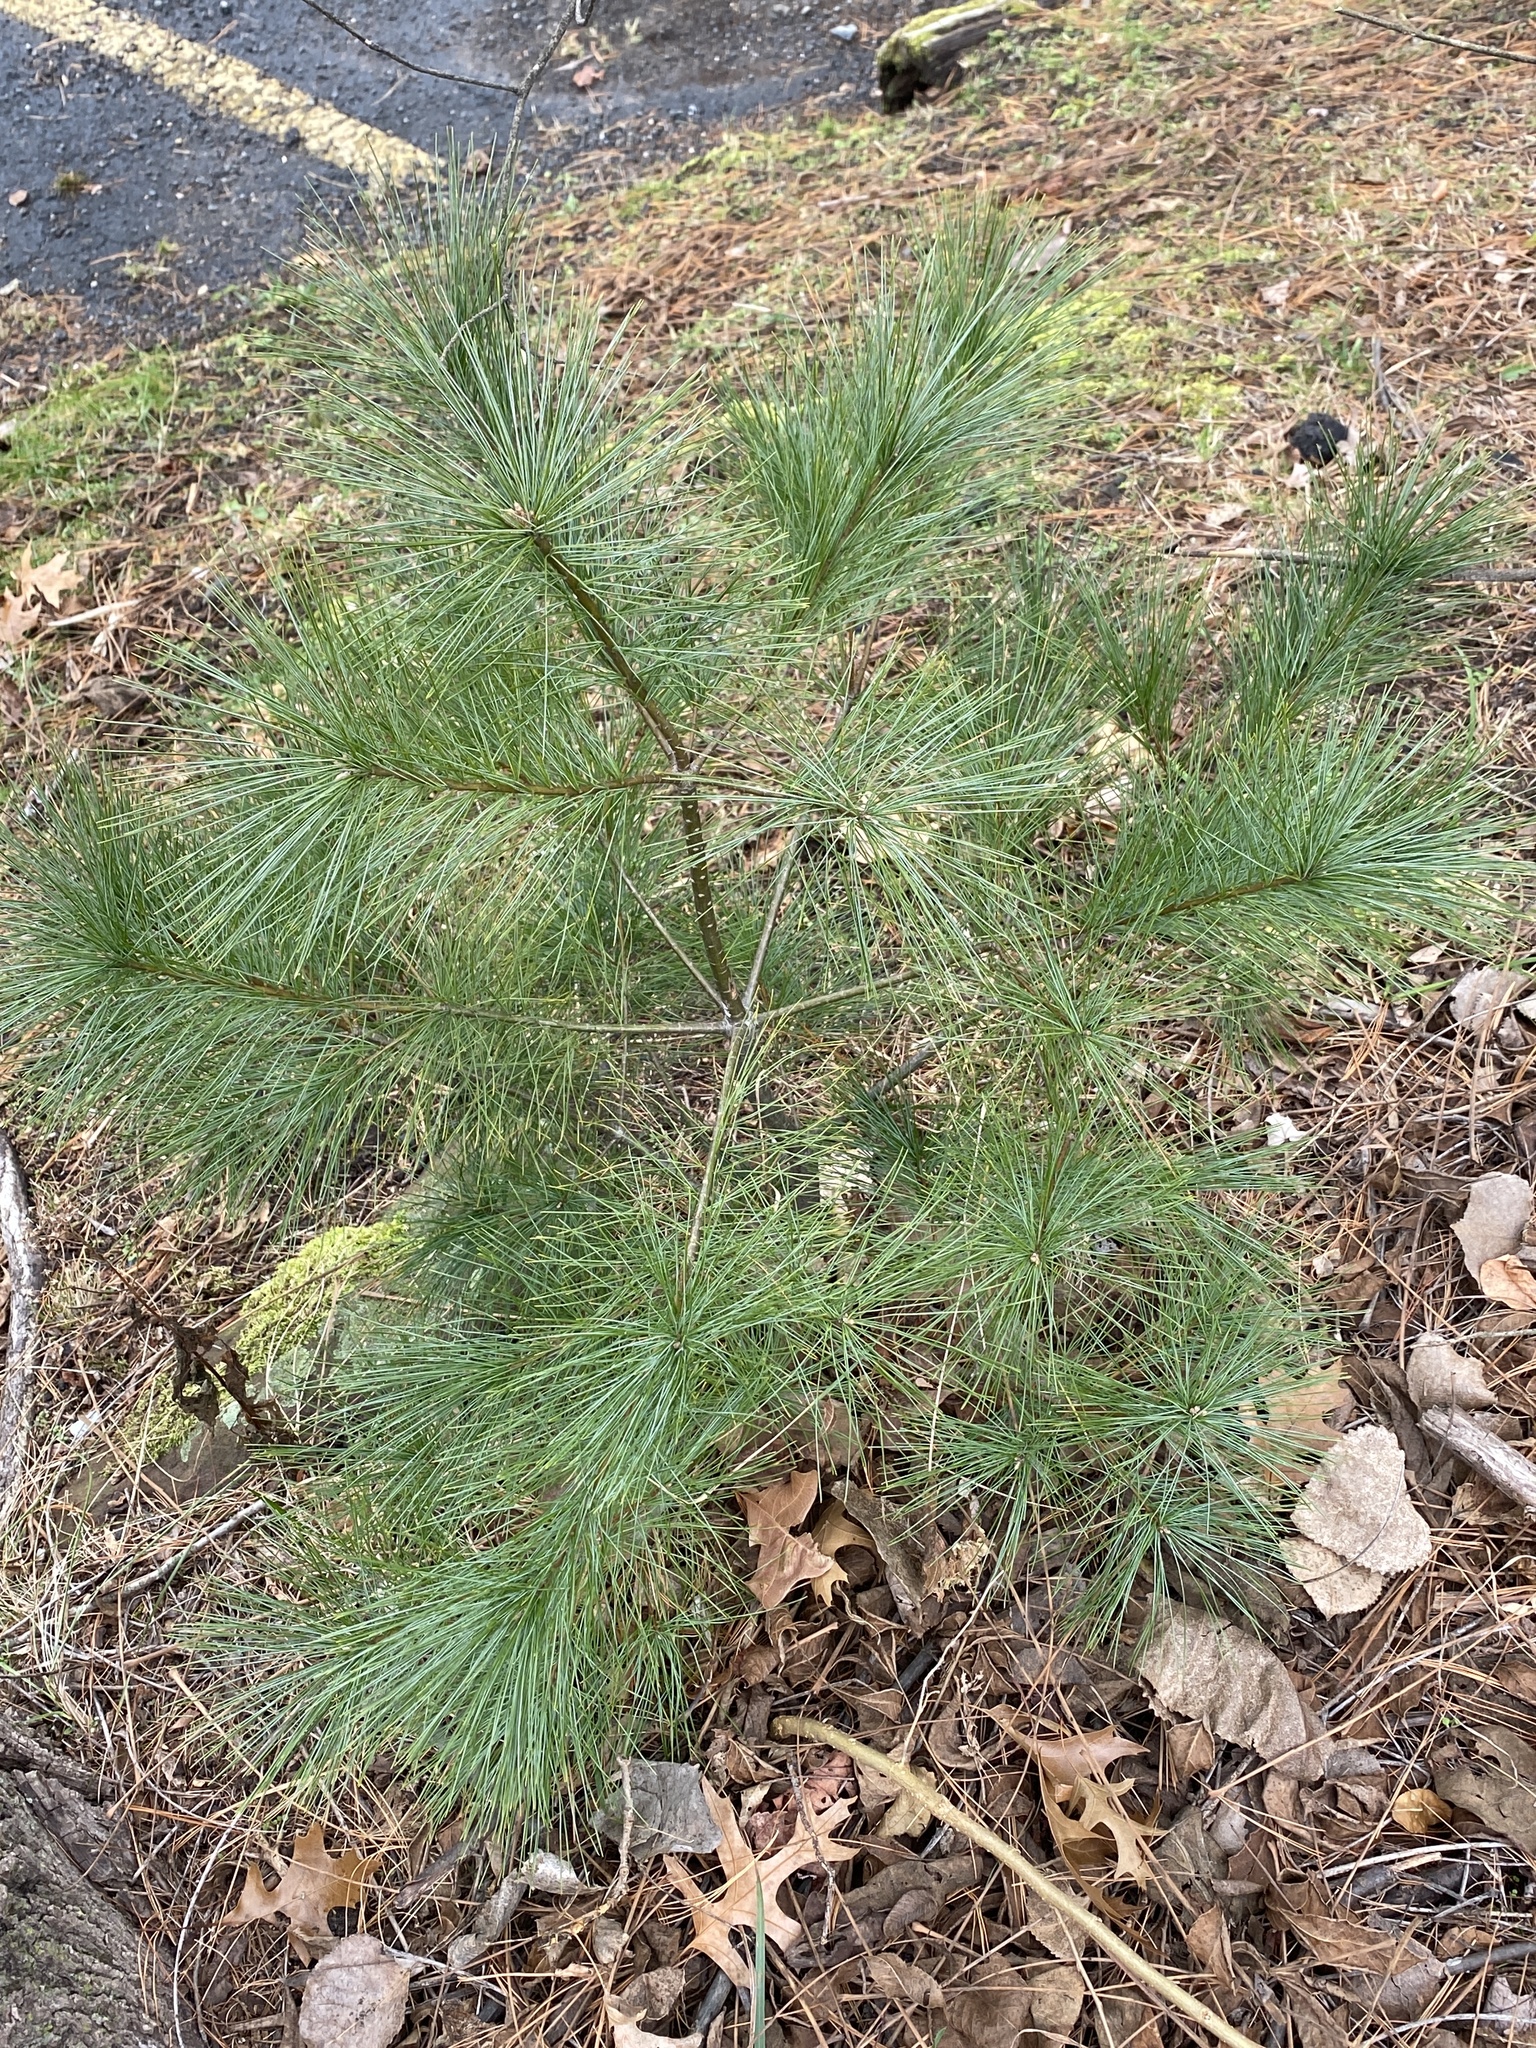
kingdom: Plantae
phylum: Tracheophyta
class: Pinopsida
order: Pinales
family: Pinaceae
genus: Pinus
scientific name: Pinus strobus
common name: Weymouth pine
